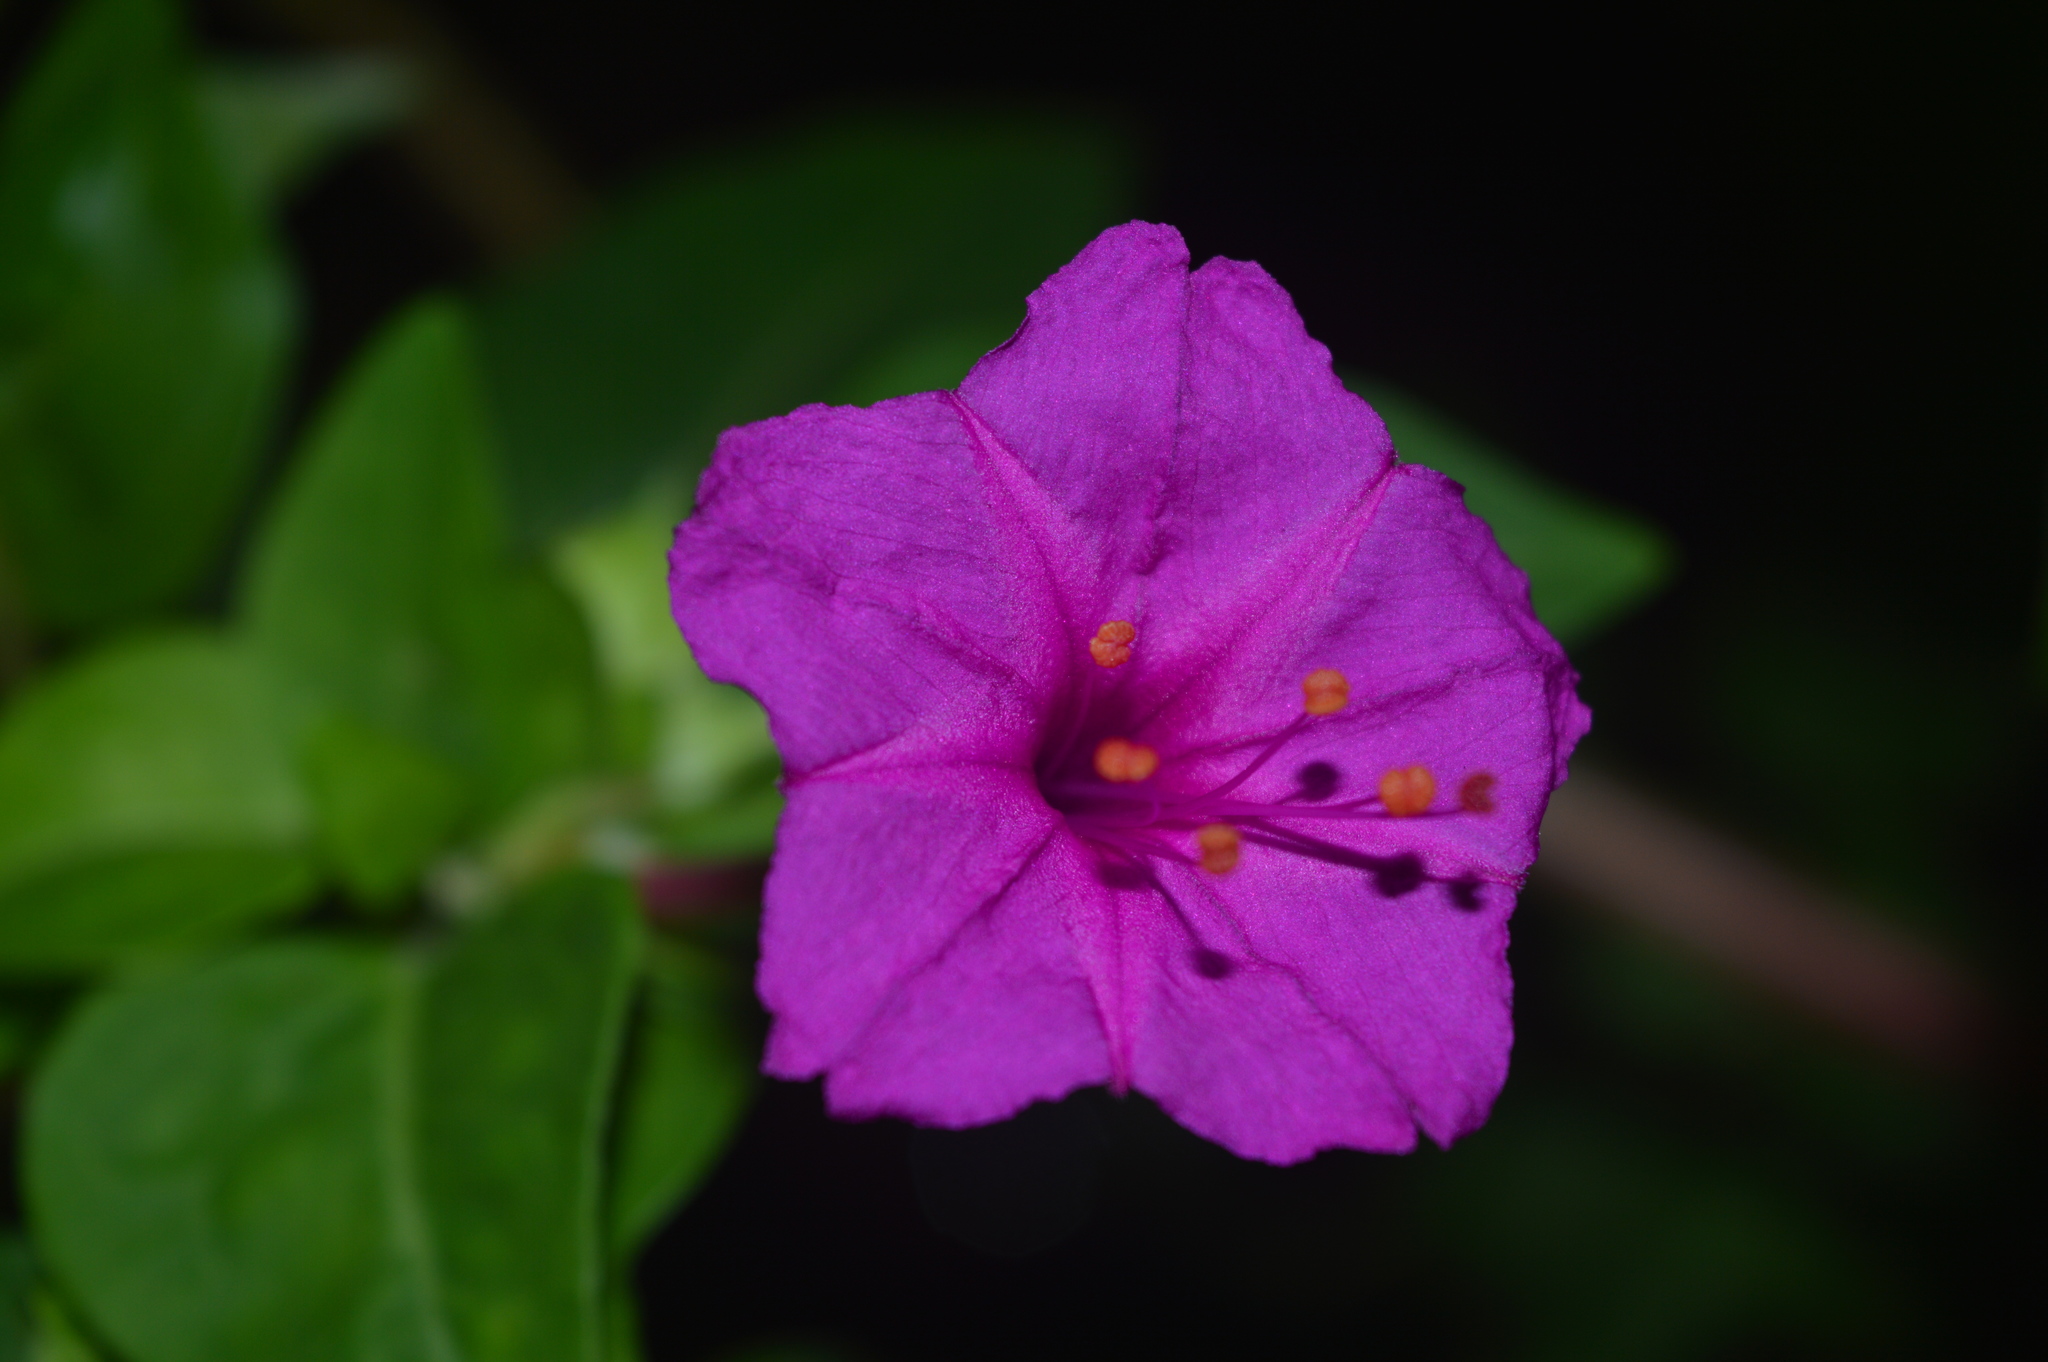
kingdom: Plantae
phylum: Tracheophyta
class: Magnoliopsida
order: Caryophyllales
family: Nyctaginaceae
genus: Mirabilis
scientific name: Mirabilis jalapa
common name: Marvel-of-peru
